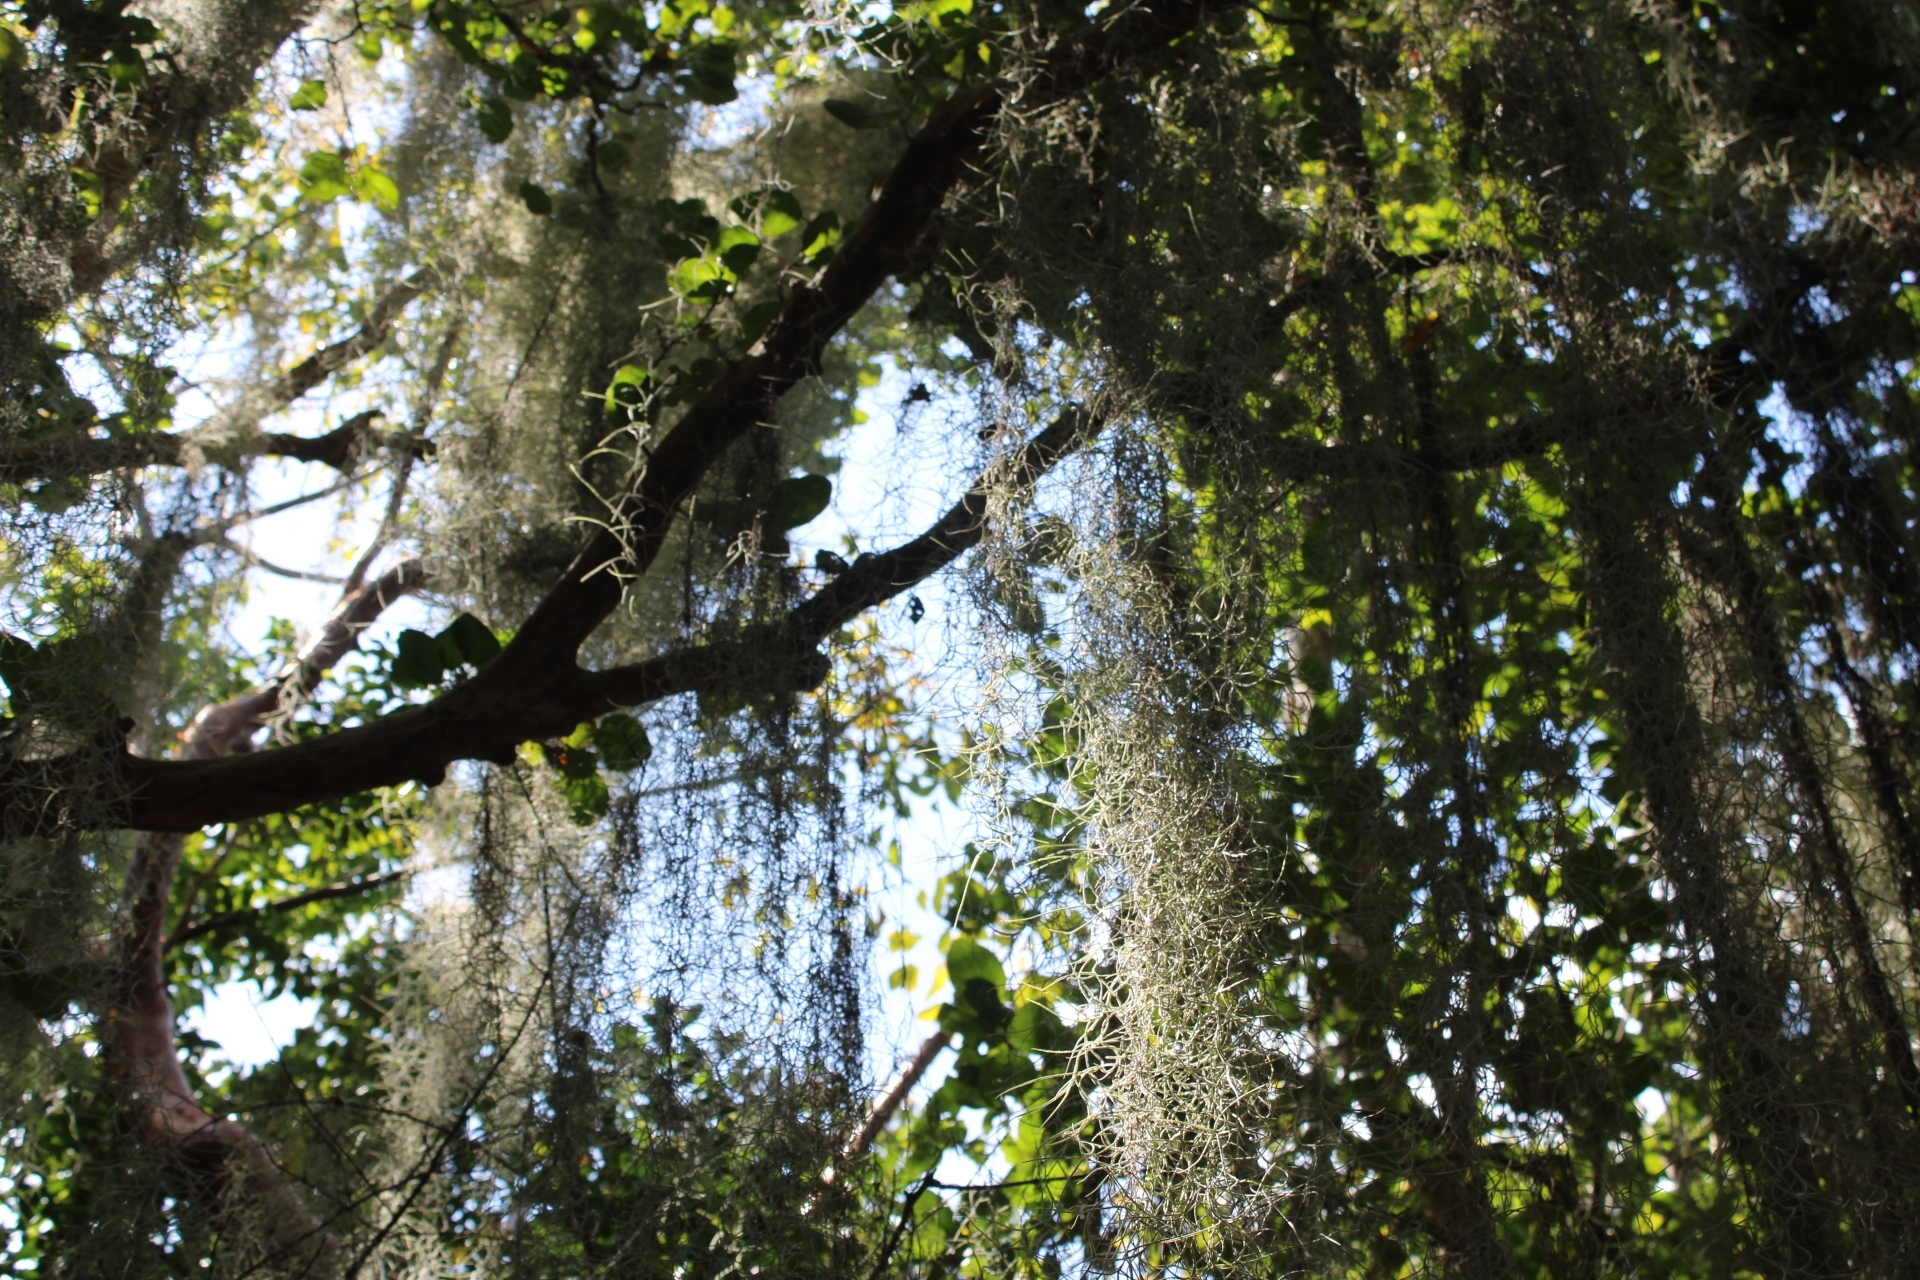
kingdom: Plantae
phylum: Tracheophyta
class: Liliopsida
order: Poales
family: Bromeliaceae
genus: Tillandsia
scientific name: Tillandsia usneoides
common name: Spanish moss
